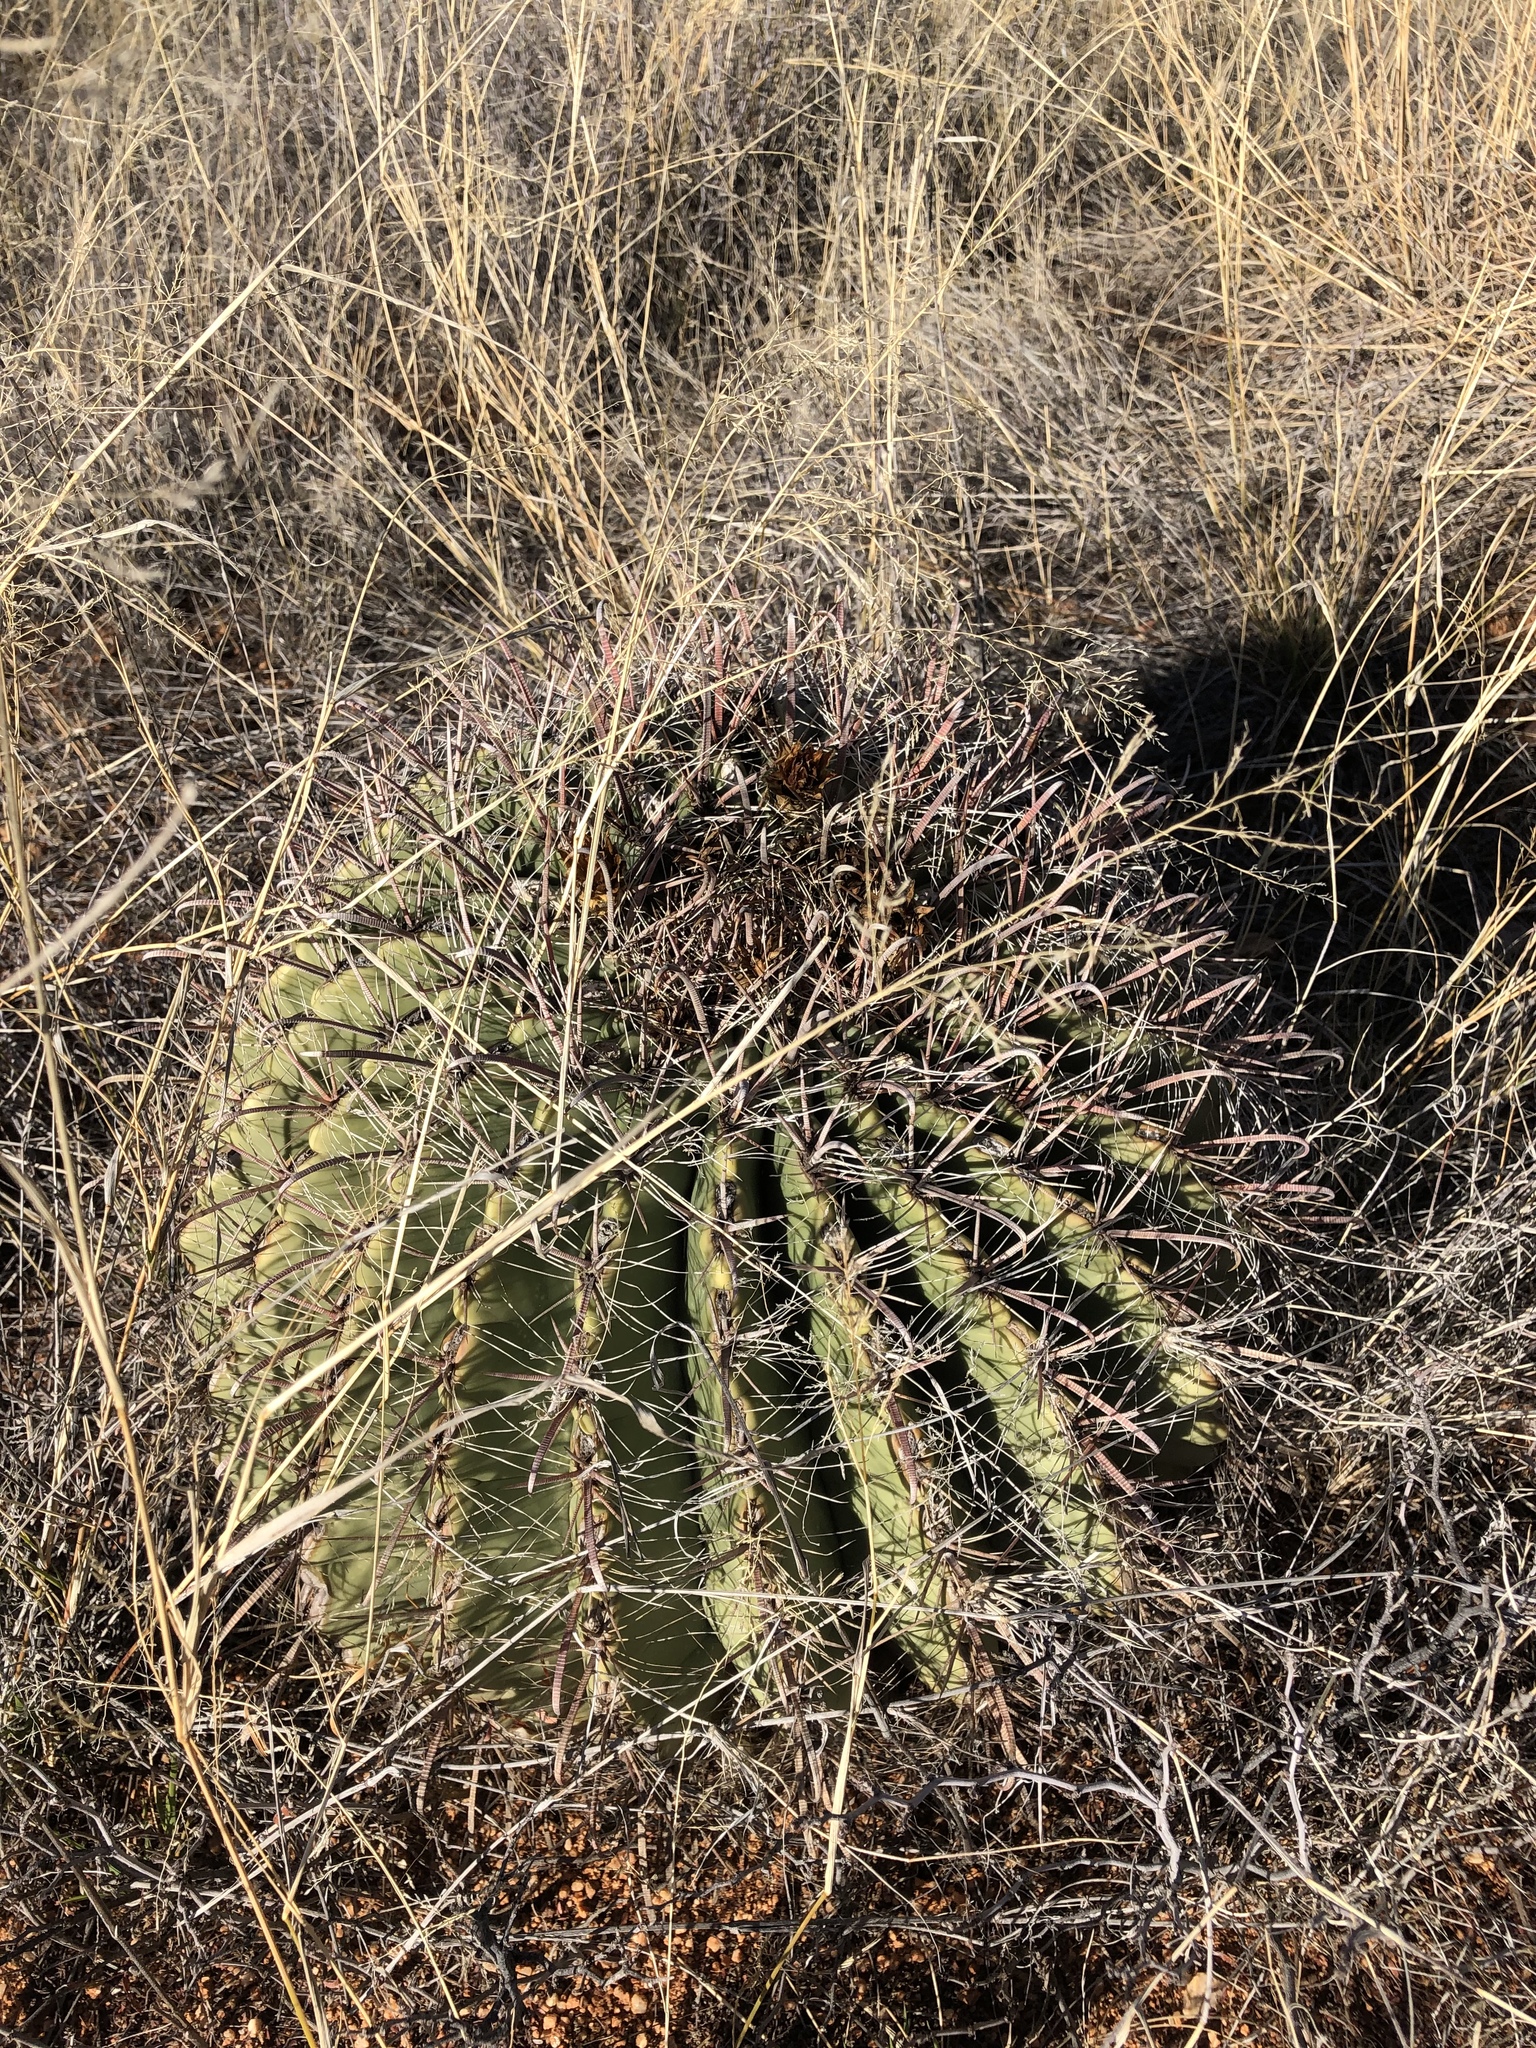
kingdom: Plantae
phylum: Tracheophyta
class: Magnoliopsida
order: Caryophyllales
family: Cactaceae
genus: Ferocactus
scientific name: Ferocactus wislizeni
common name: Candy barrel cactus
